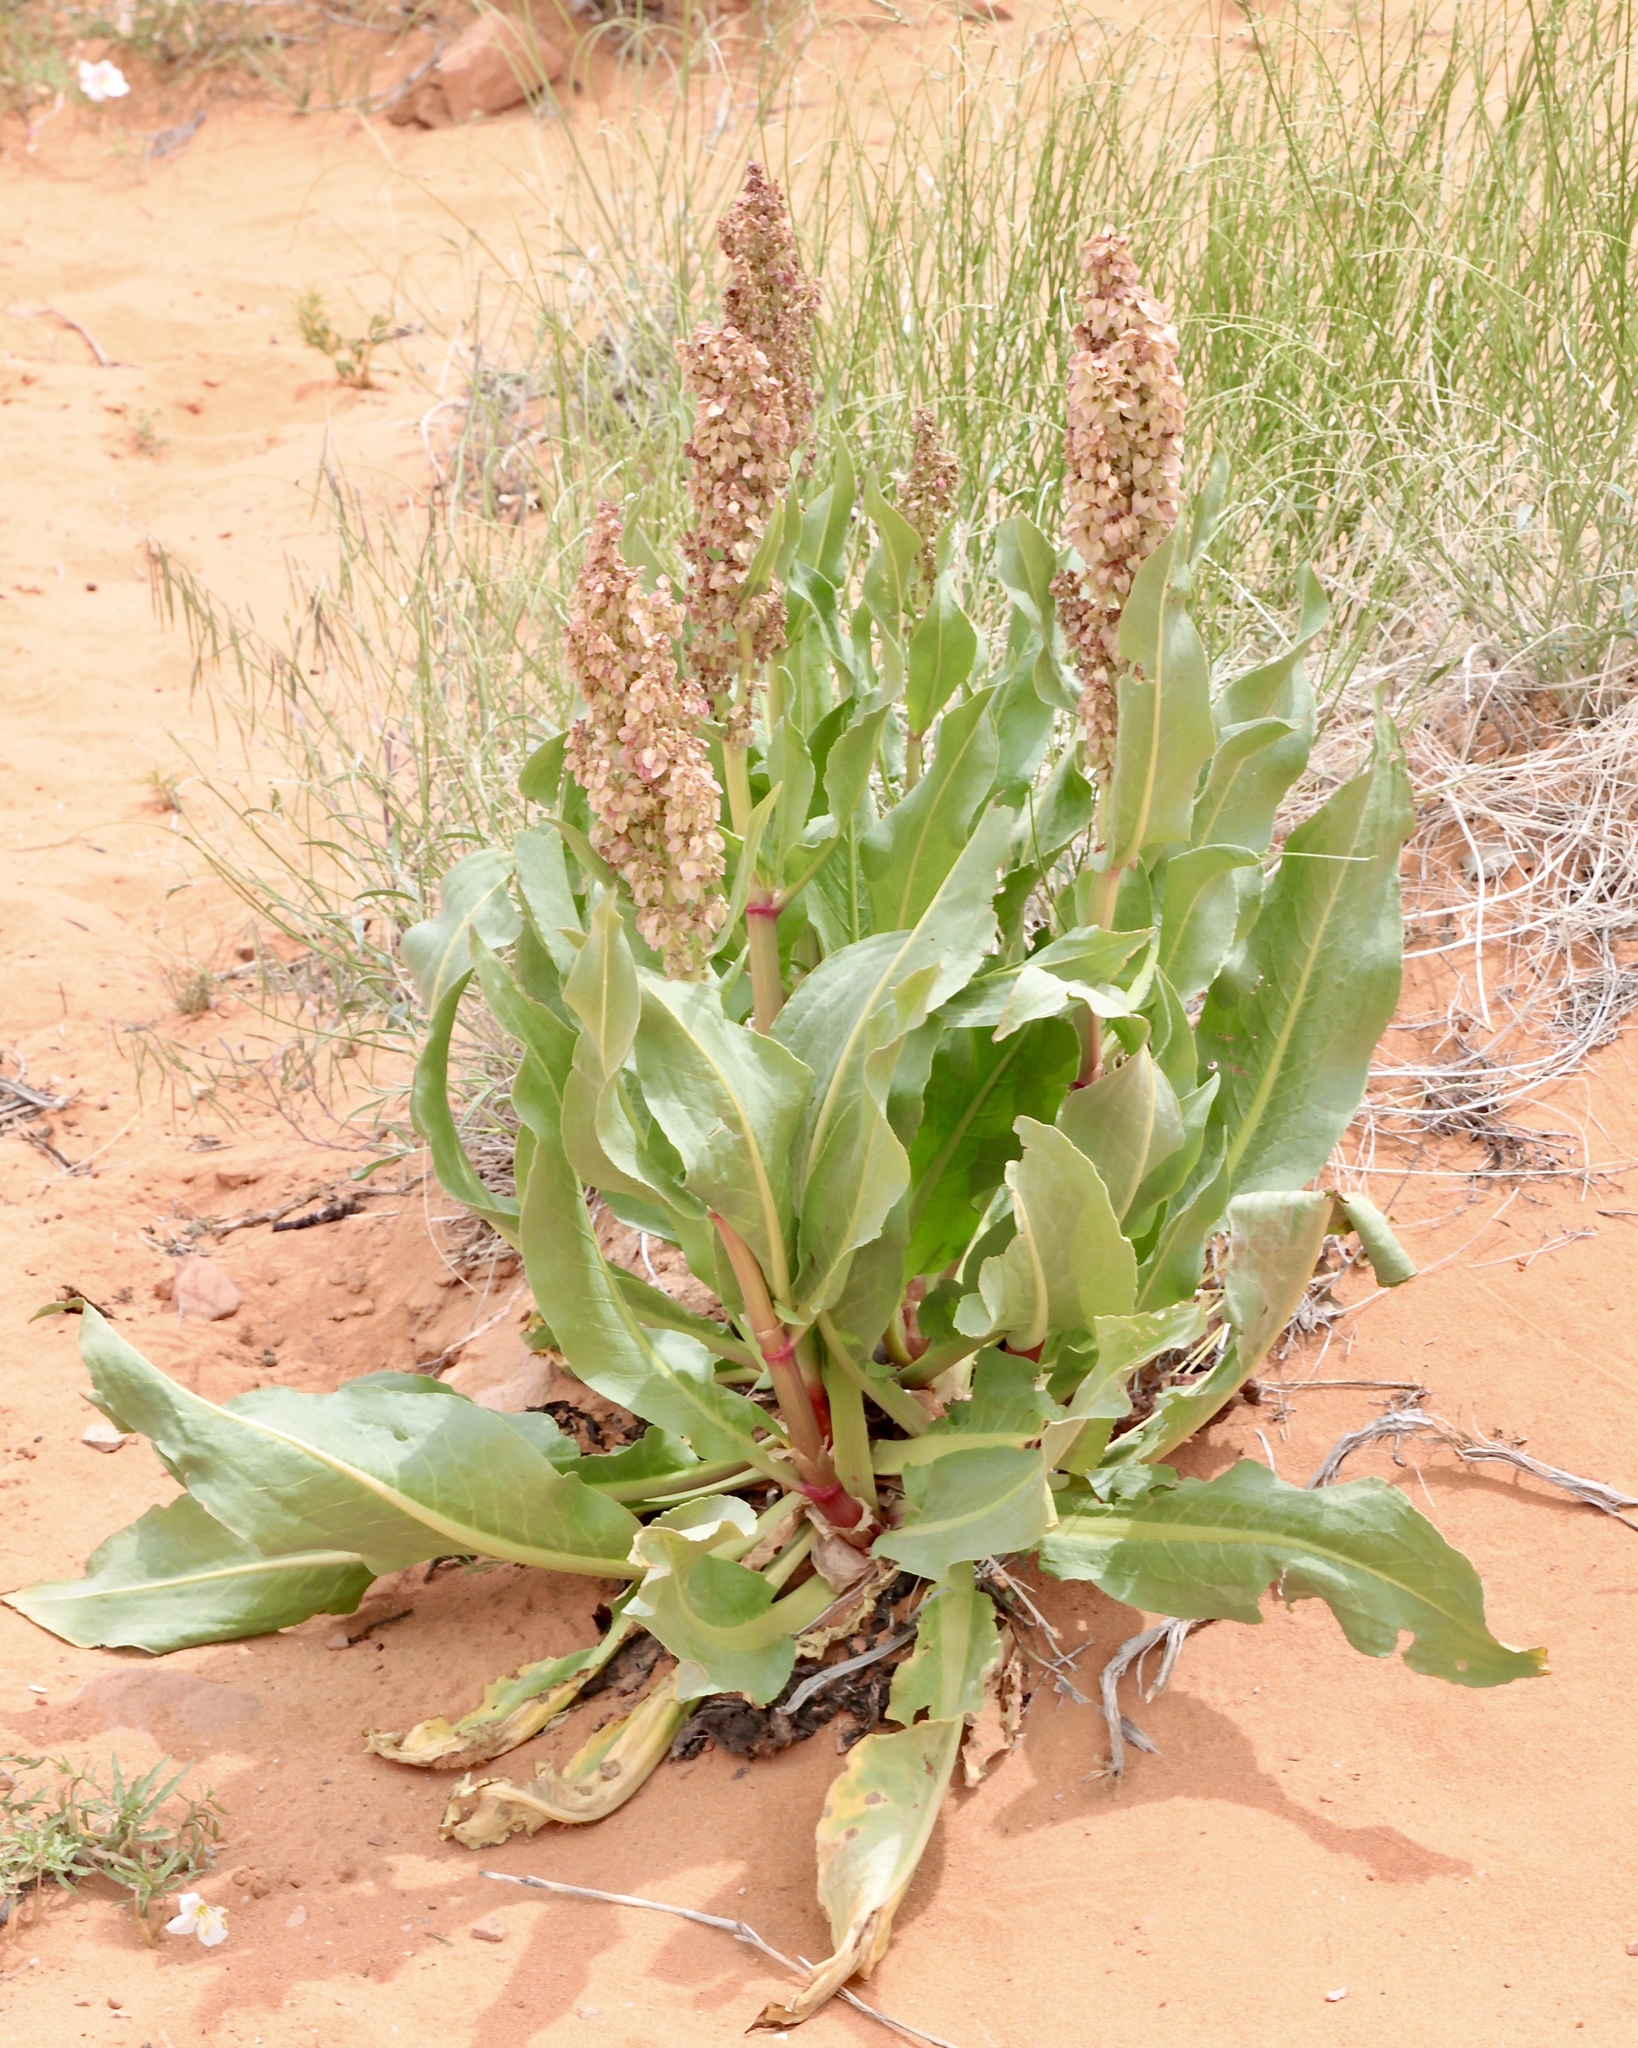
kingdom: Plantae
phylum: Tracheophyta
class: Magnoliopsida
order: Caryophyllales
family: Polygonaceae
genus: Rumex
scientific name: Rumex hymenosepalus
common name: Ganagra
